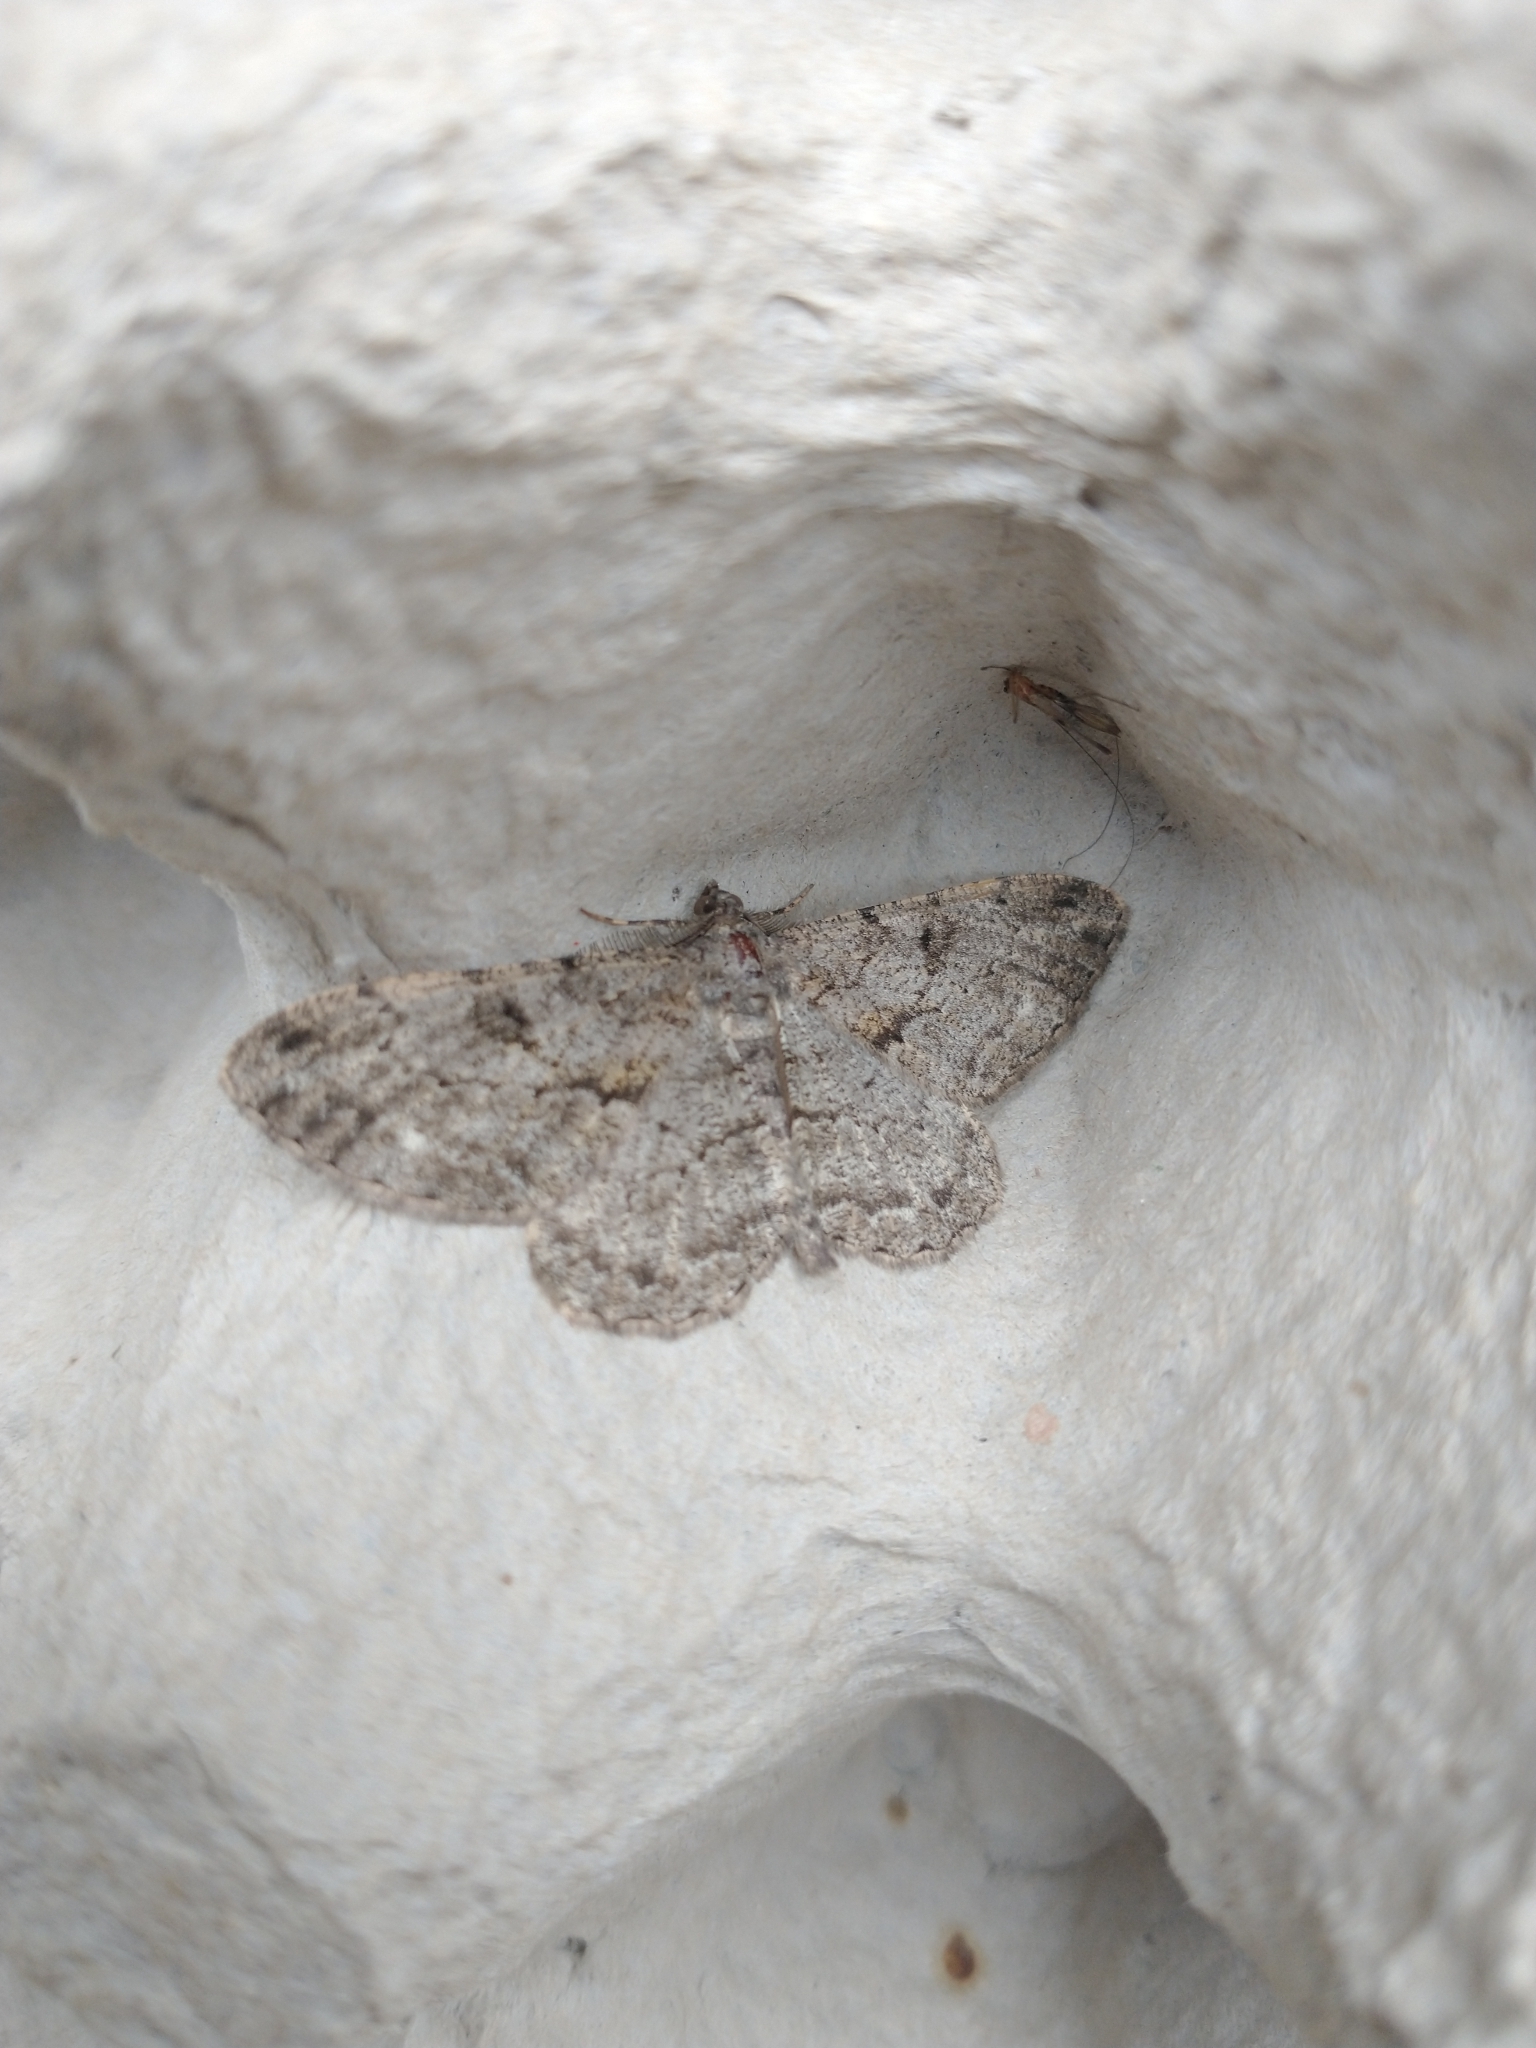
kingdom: Animalia
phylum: Arthropoda
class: Insecta
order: Lepidoptera
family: Geometridae
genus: Peribatodes
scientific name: Peribatodes rhomboidaria
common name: Willow beauty
